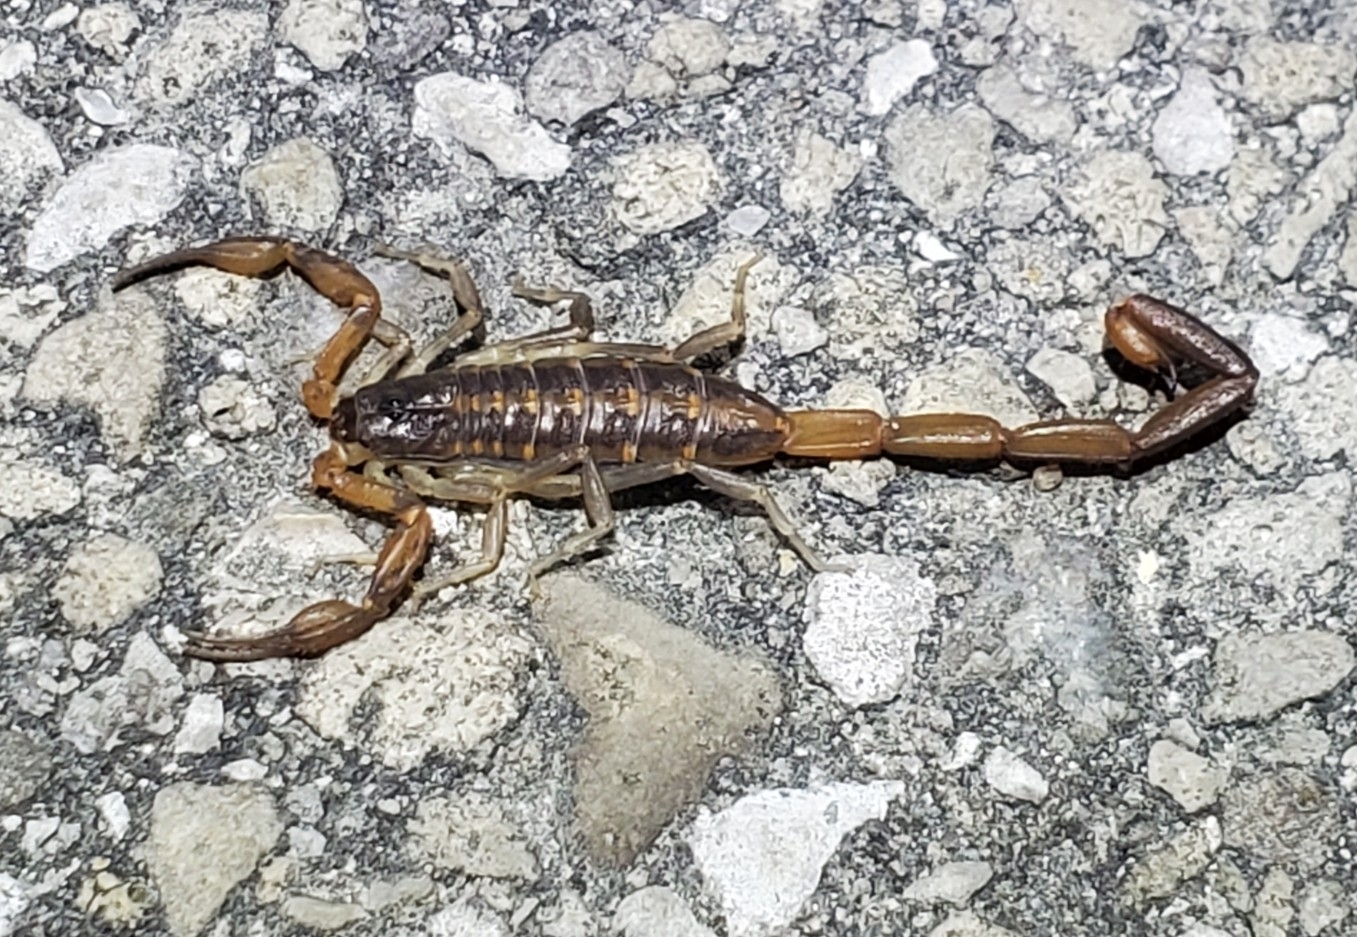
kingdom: Animalia
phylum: Arthropoda
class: Arachnida
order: Scorpiones
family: Buthidae
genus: Centruroides
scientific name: Centruroides hentzi
